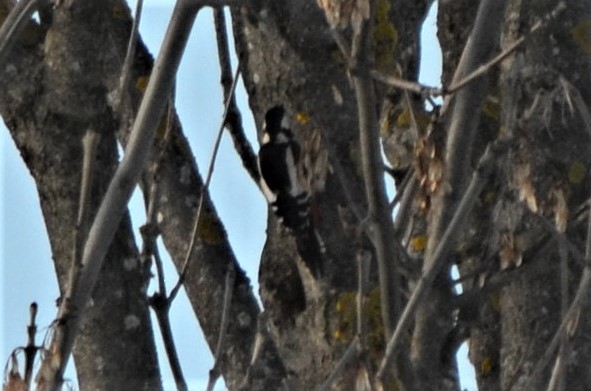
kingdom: Animalia
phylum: Chordata
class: Aves
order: Piciformes
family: Picidae
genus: Dendrocopos
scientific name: Dendrocopos major
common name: Great spotted woodpecker
